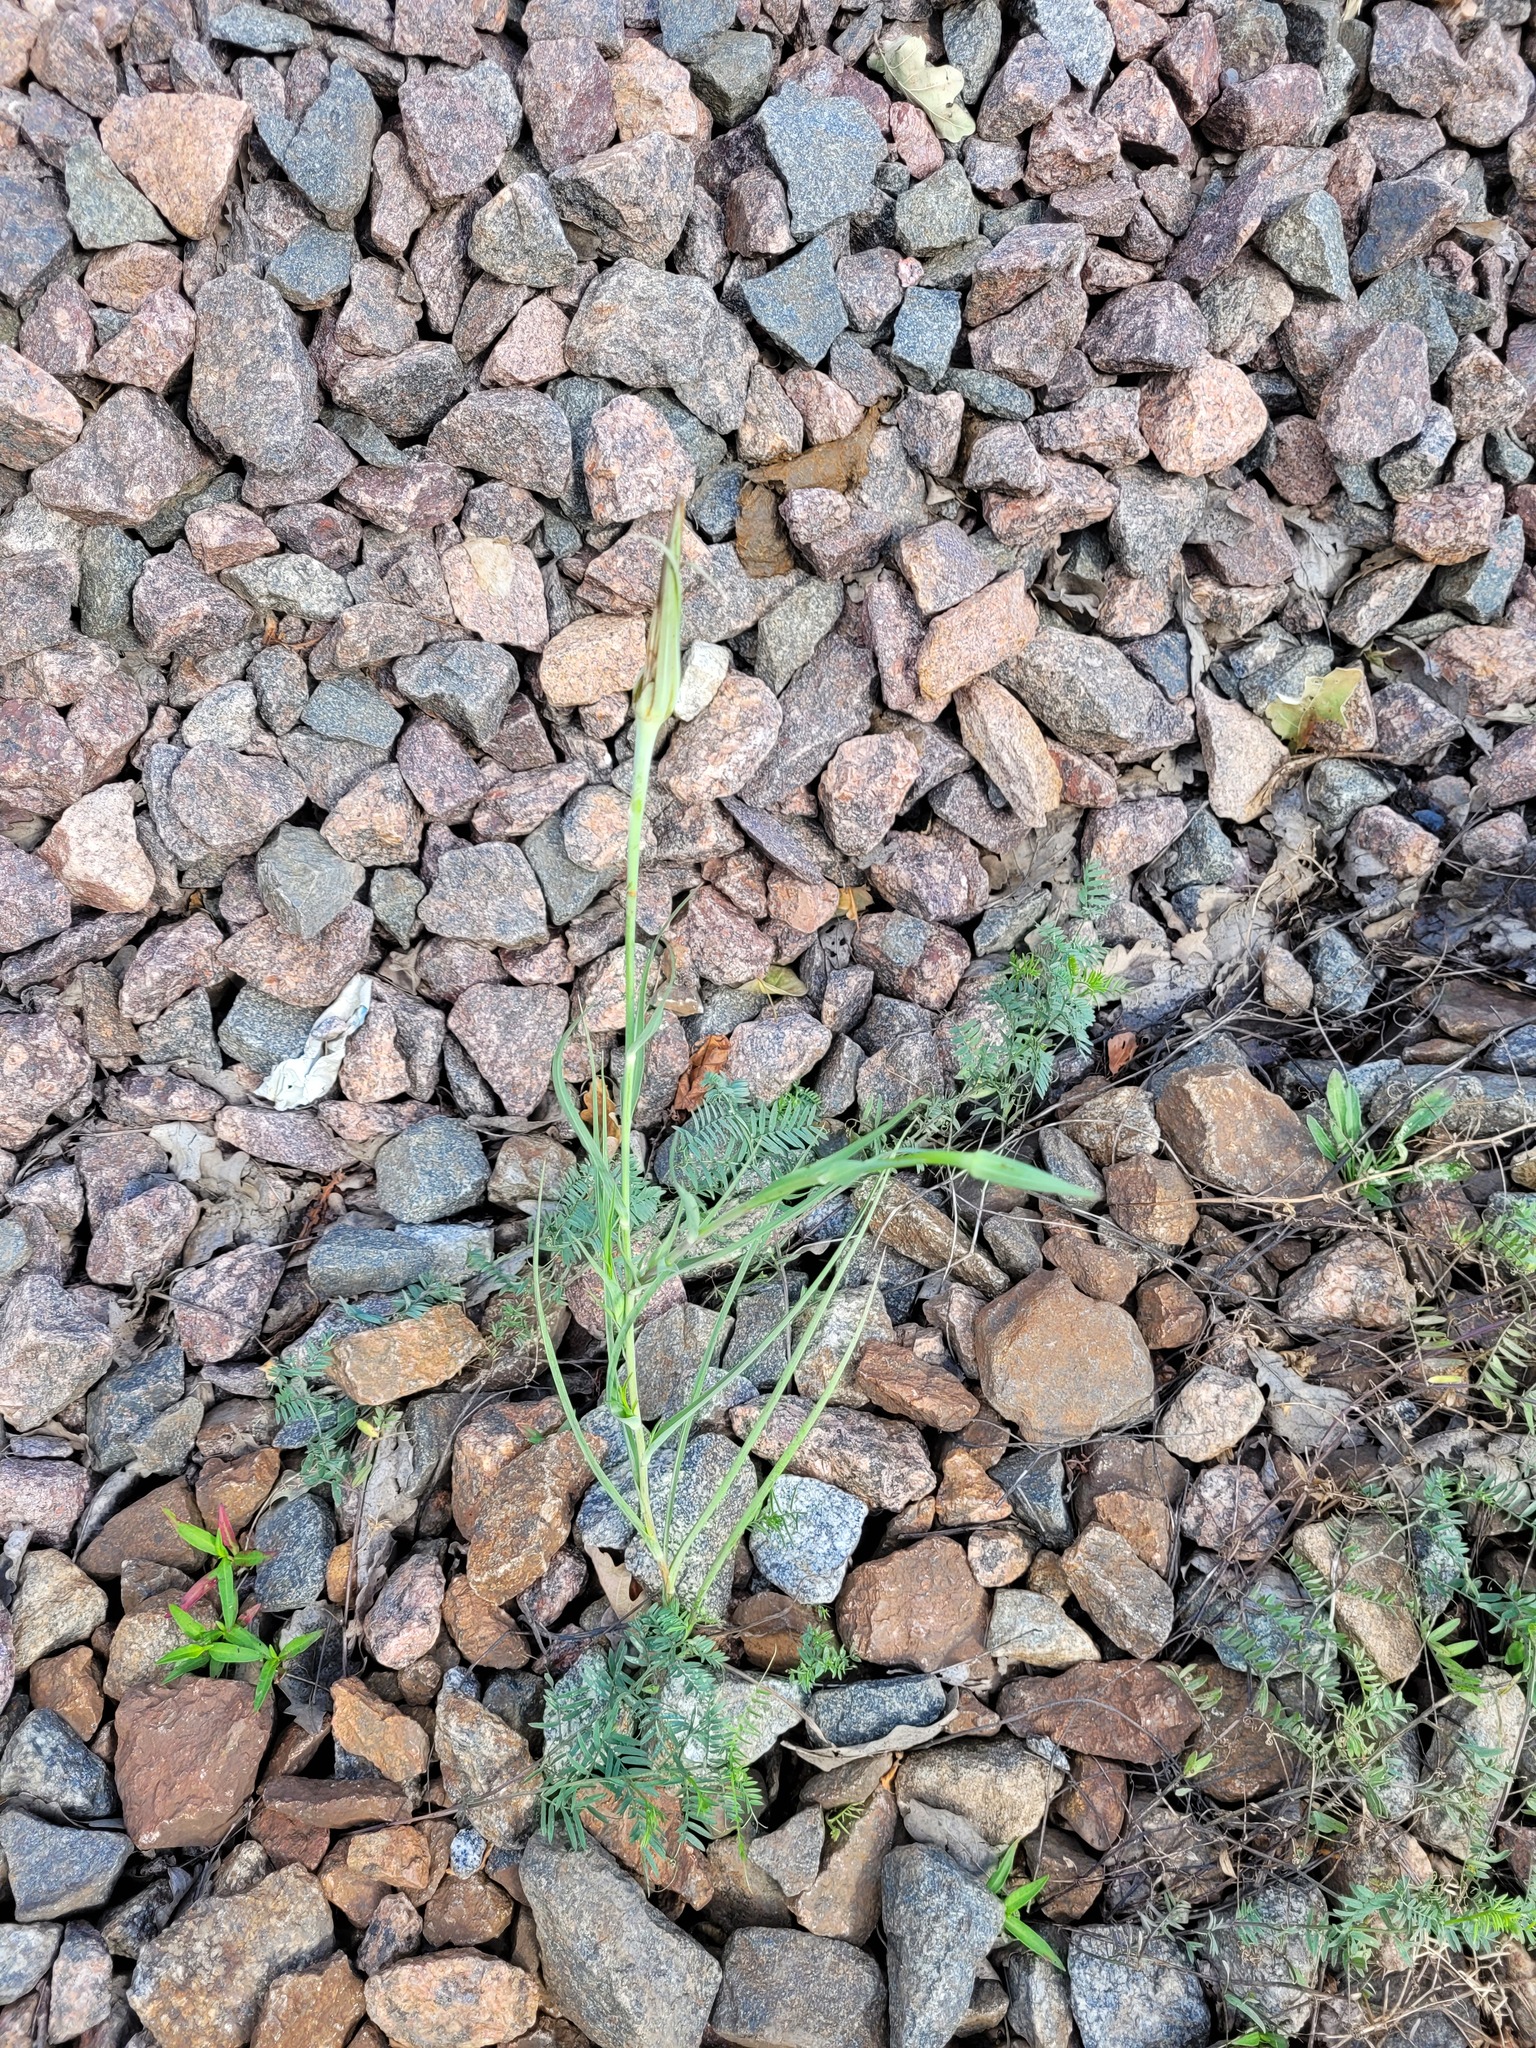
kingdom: Plantae
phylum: Tracheophyta
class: Magnoliopsida
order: Asterales
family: Asteraceae
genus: Tragopogon
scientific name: Tragopogon dubius
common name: Yellow salsify
